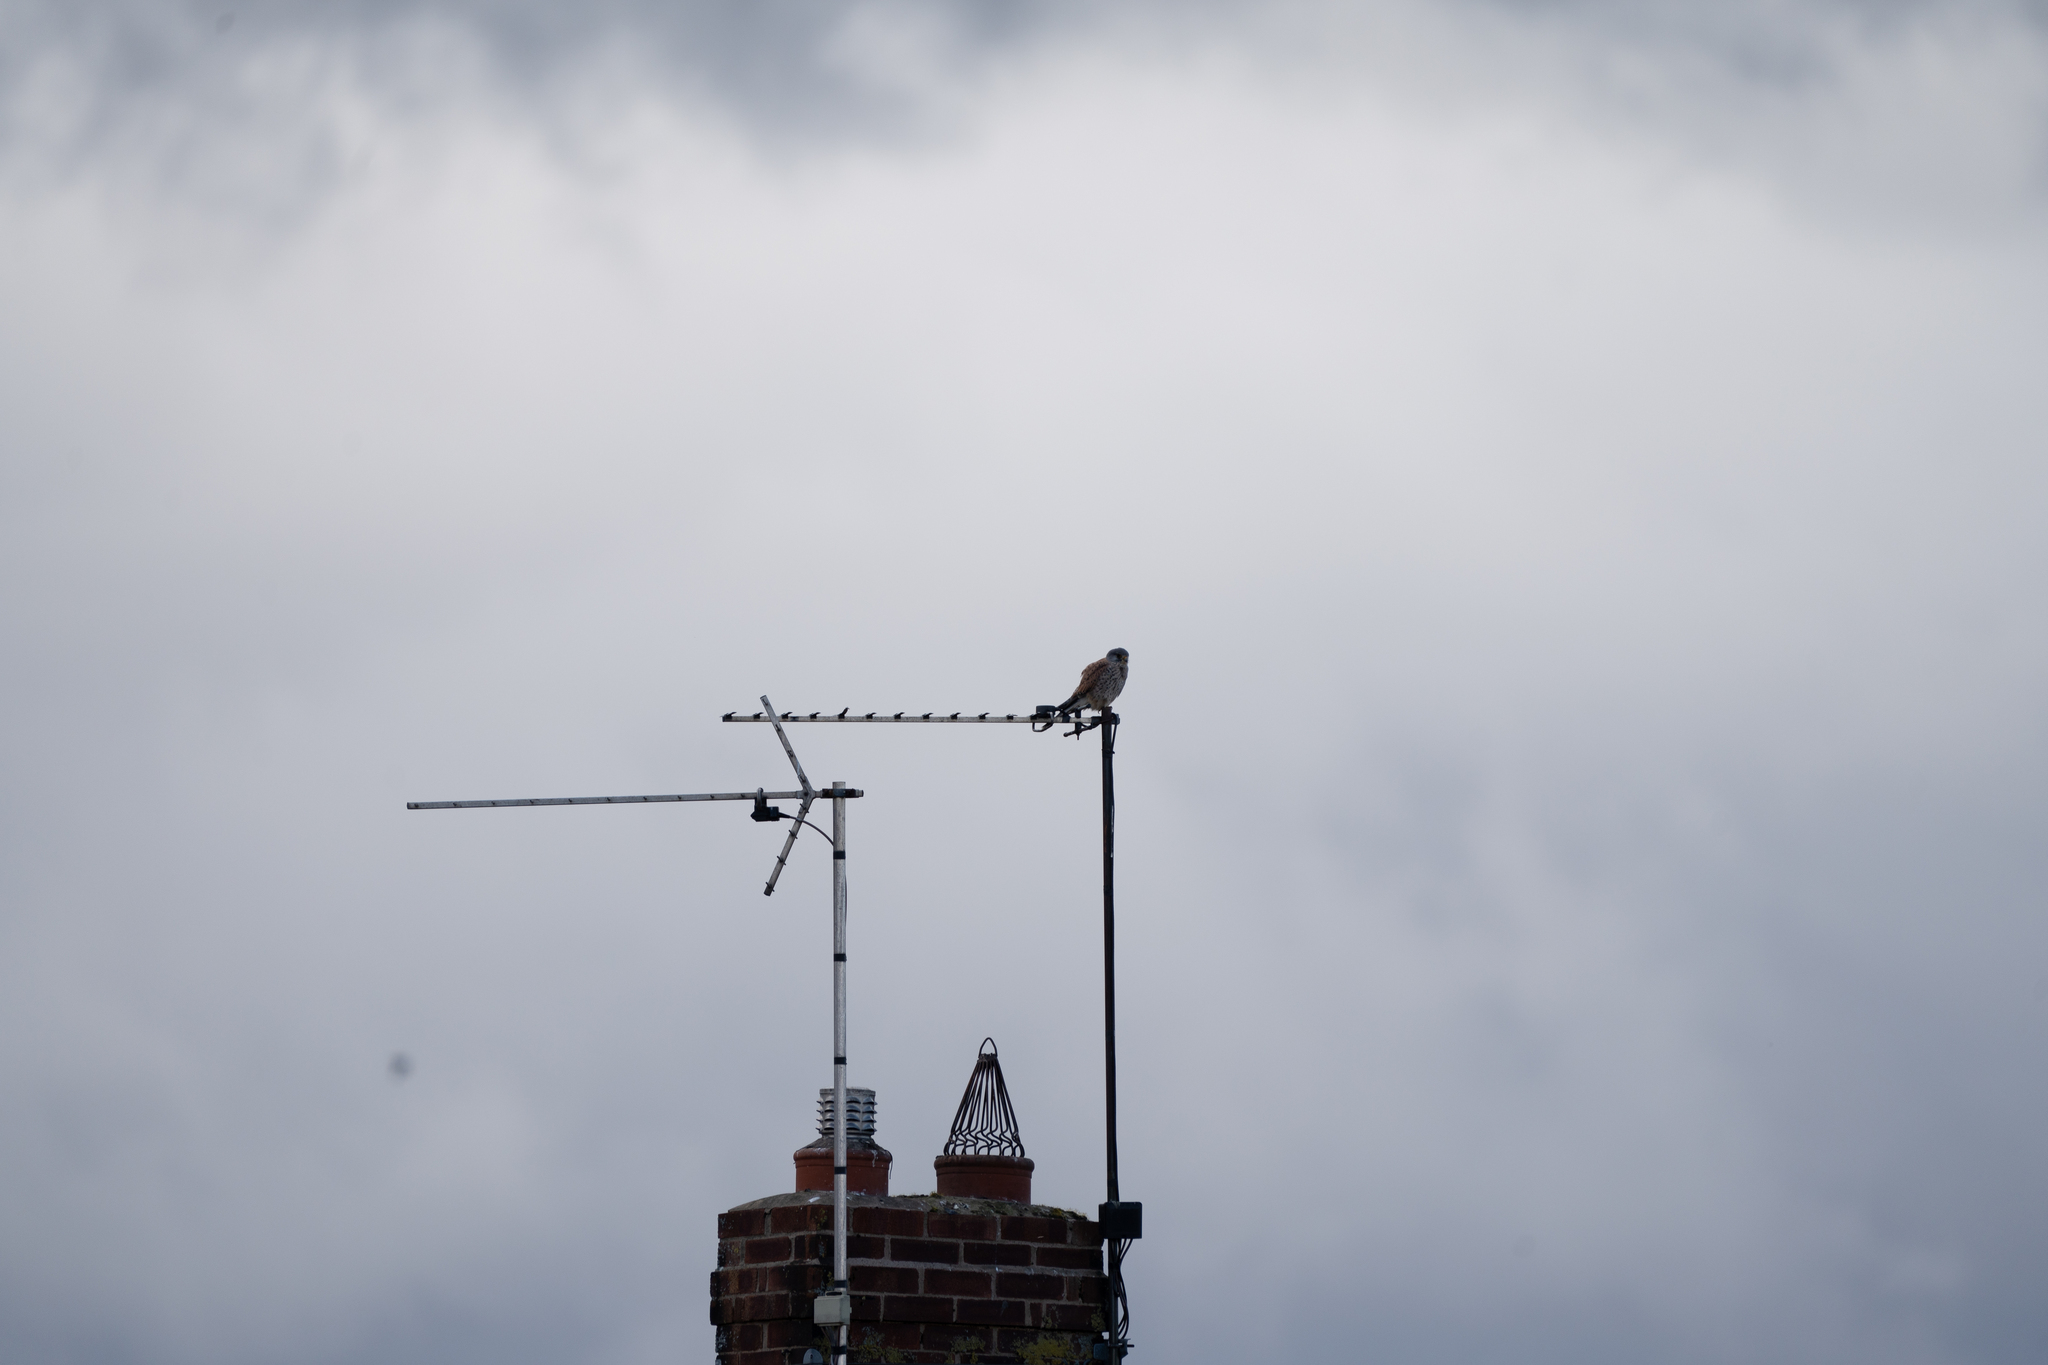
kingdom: Animalia
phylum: Chordata
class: Aves
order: Falconiformes
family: Falconidae
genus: Falco
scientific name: Falco tinnunculus
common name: Common kestrel
